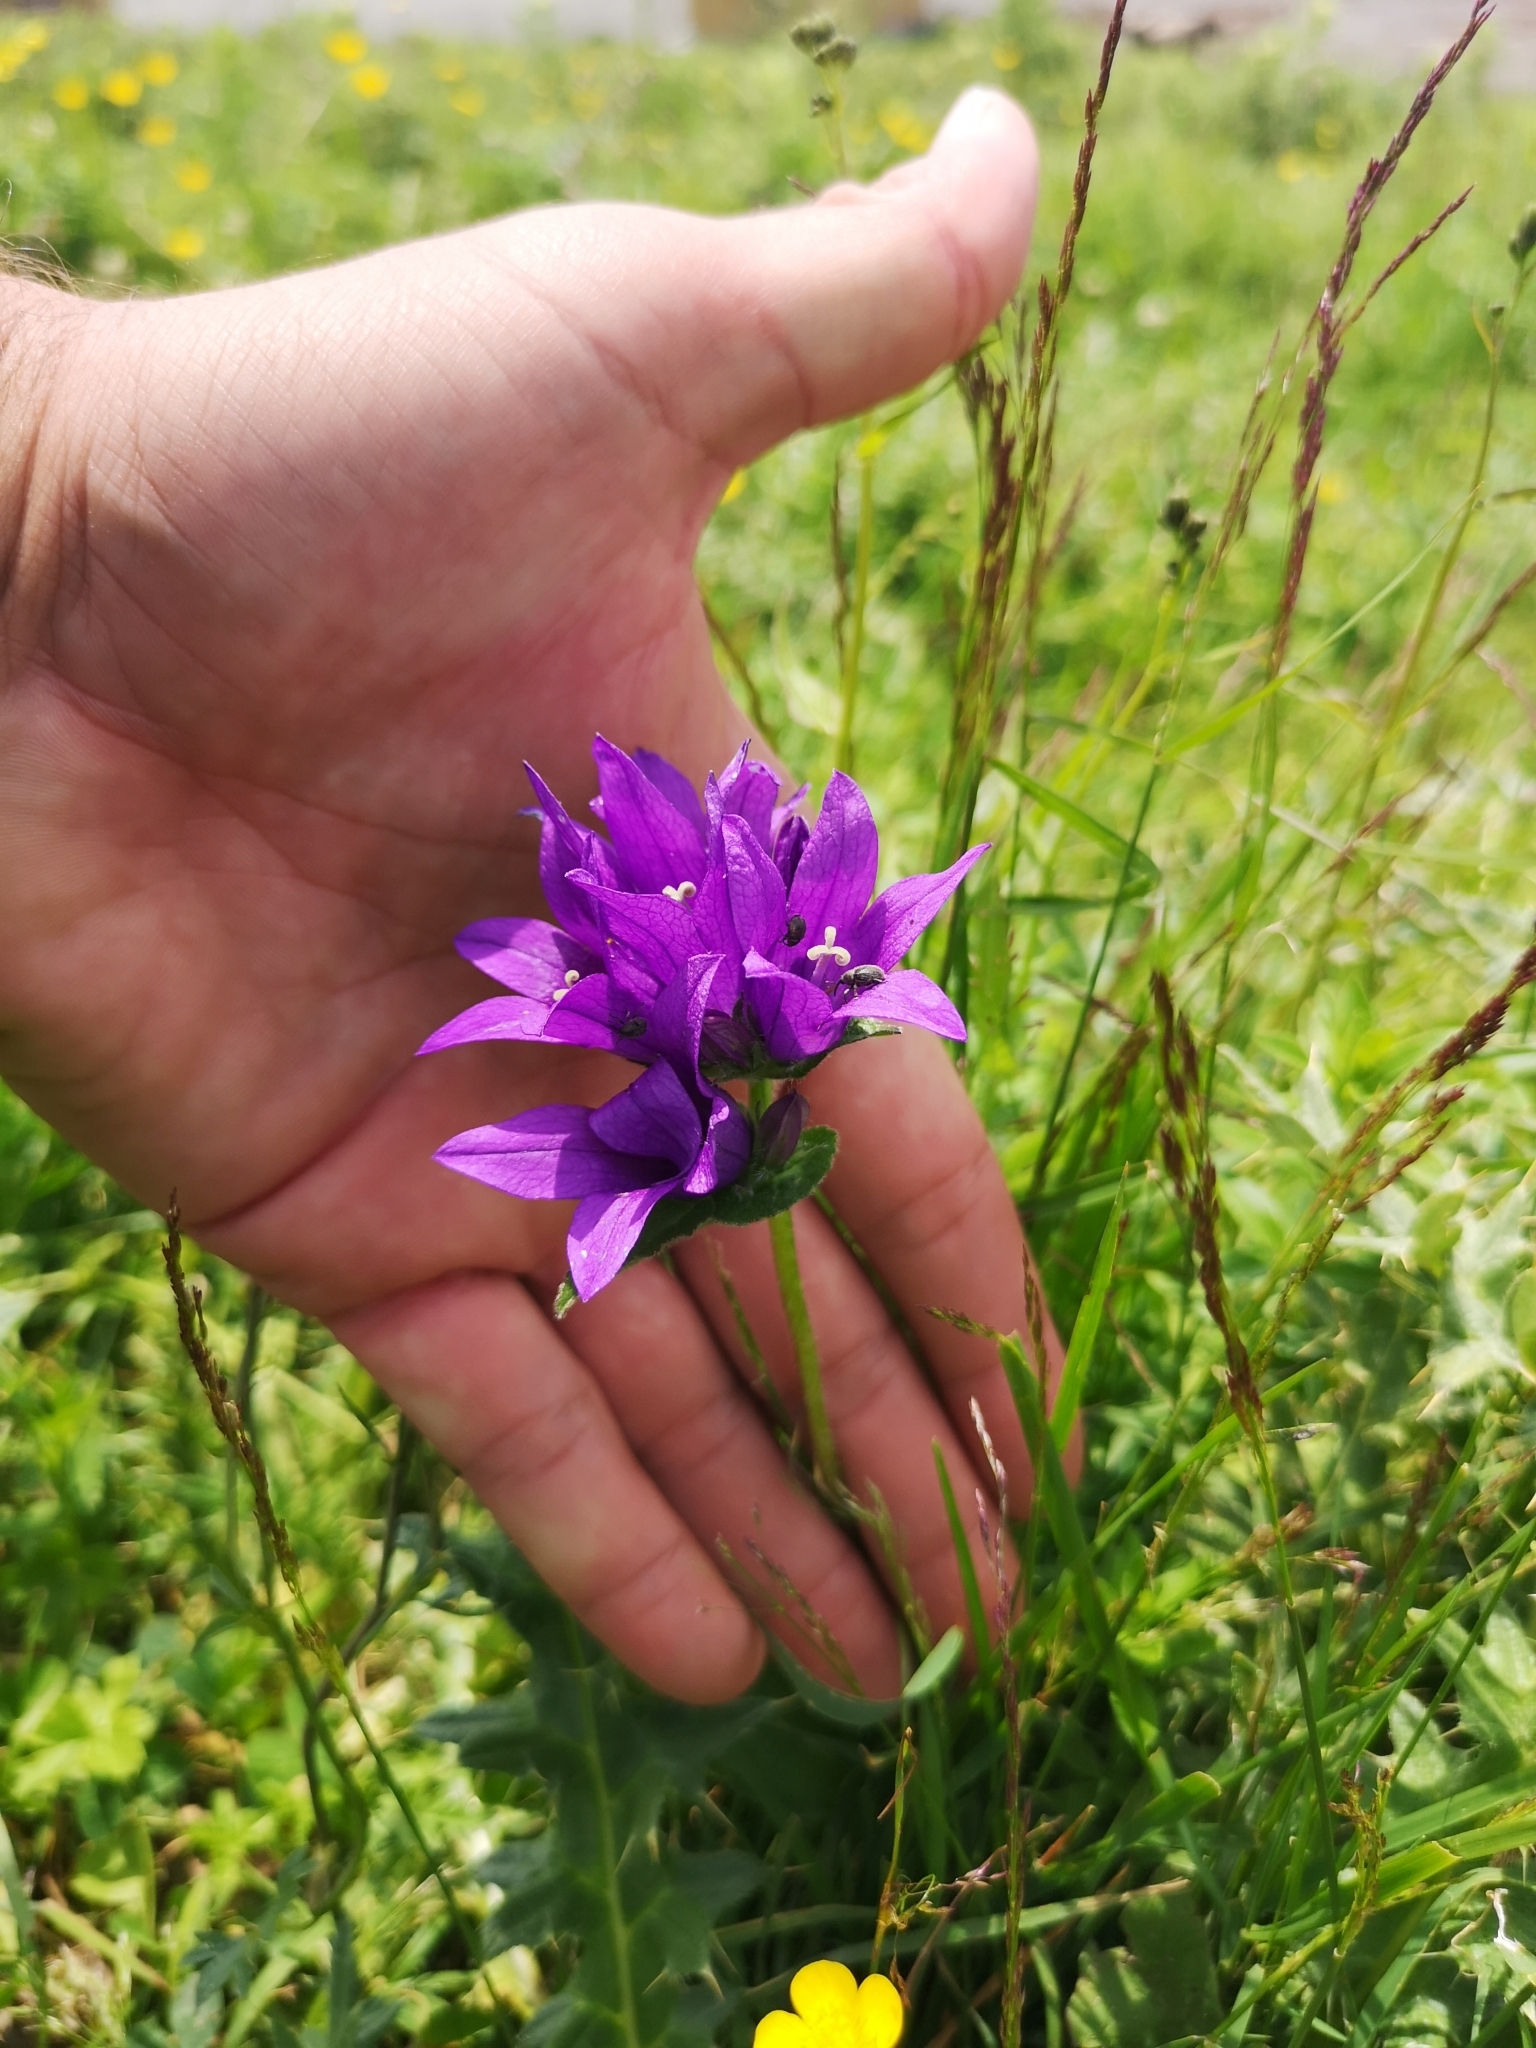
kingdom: Plantae
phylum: Tracheophyta
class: Magnoliopsida
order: Asterales
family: Campanulaceae
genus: Campanula
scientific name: Campanula glomerata
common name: Clustered bellflower
